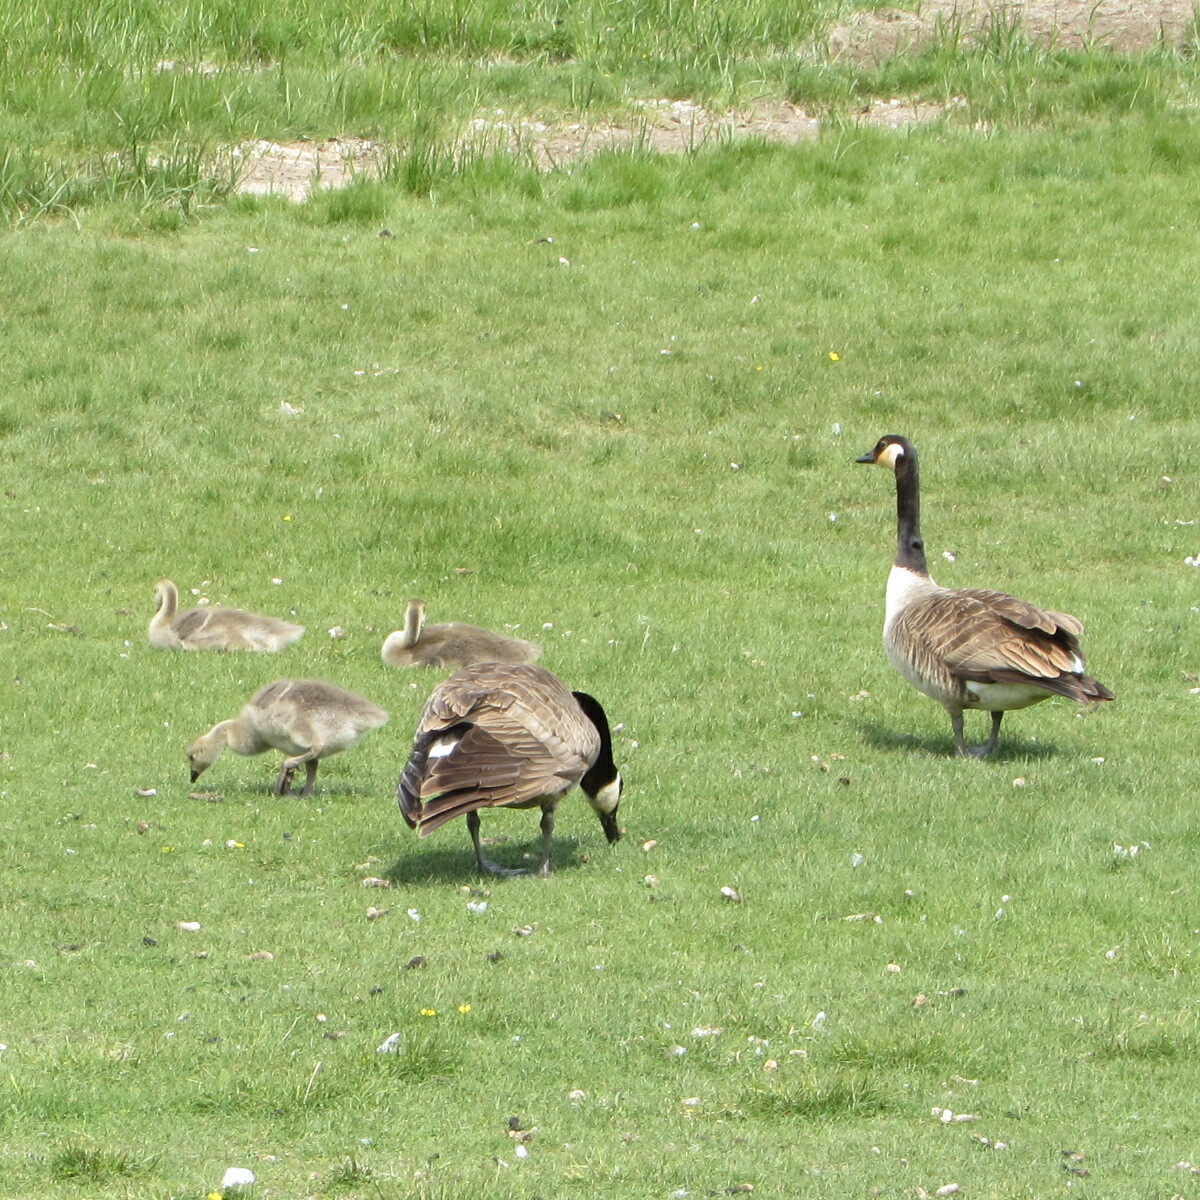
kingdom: Animalia
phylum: Chordata
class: Aves
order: Anseriformes
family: Anatidae
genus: Branta
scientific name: Branta canadensis
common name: Canada goose
